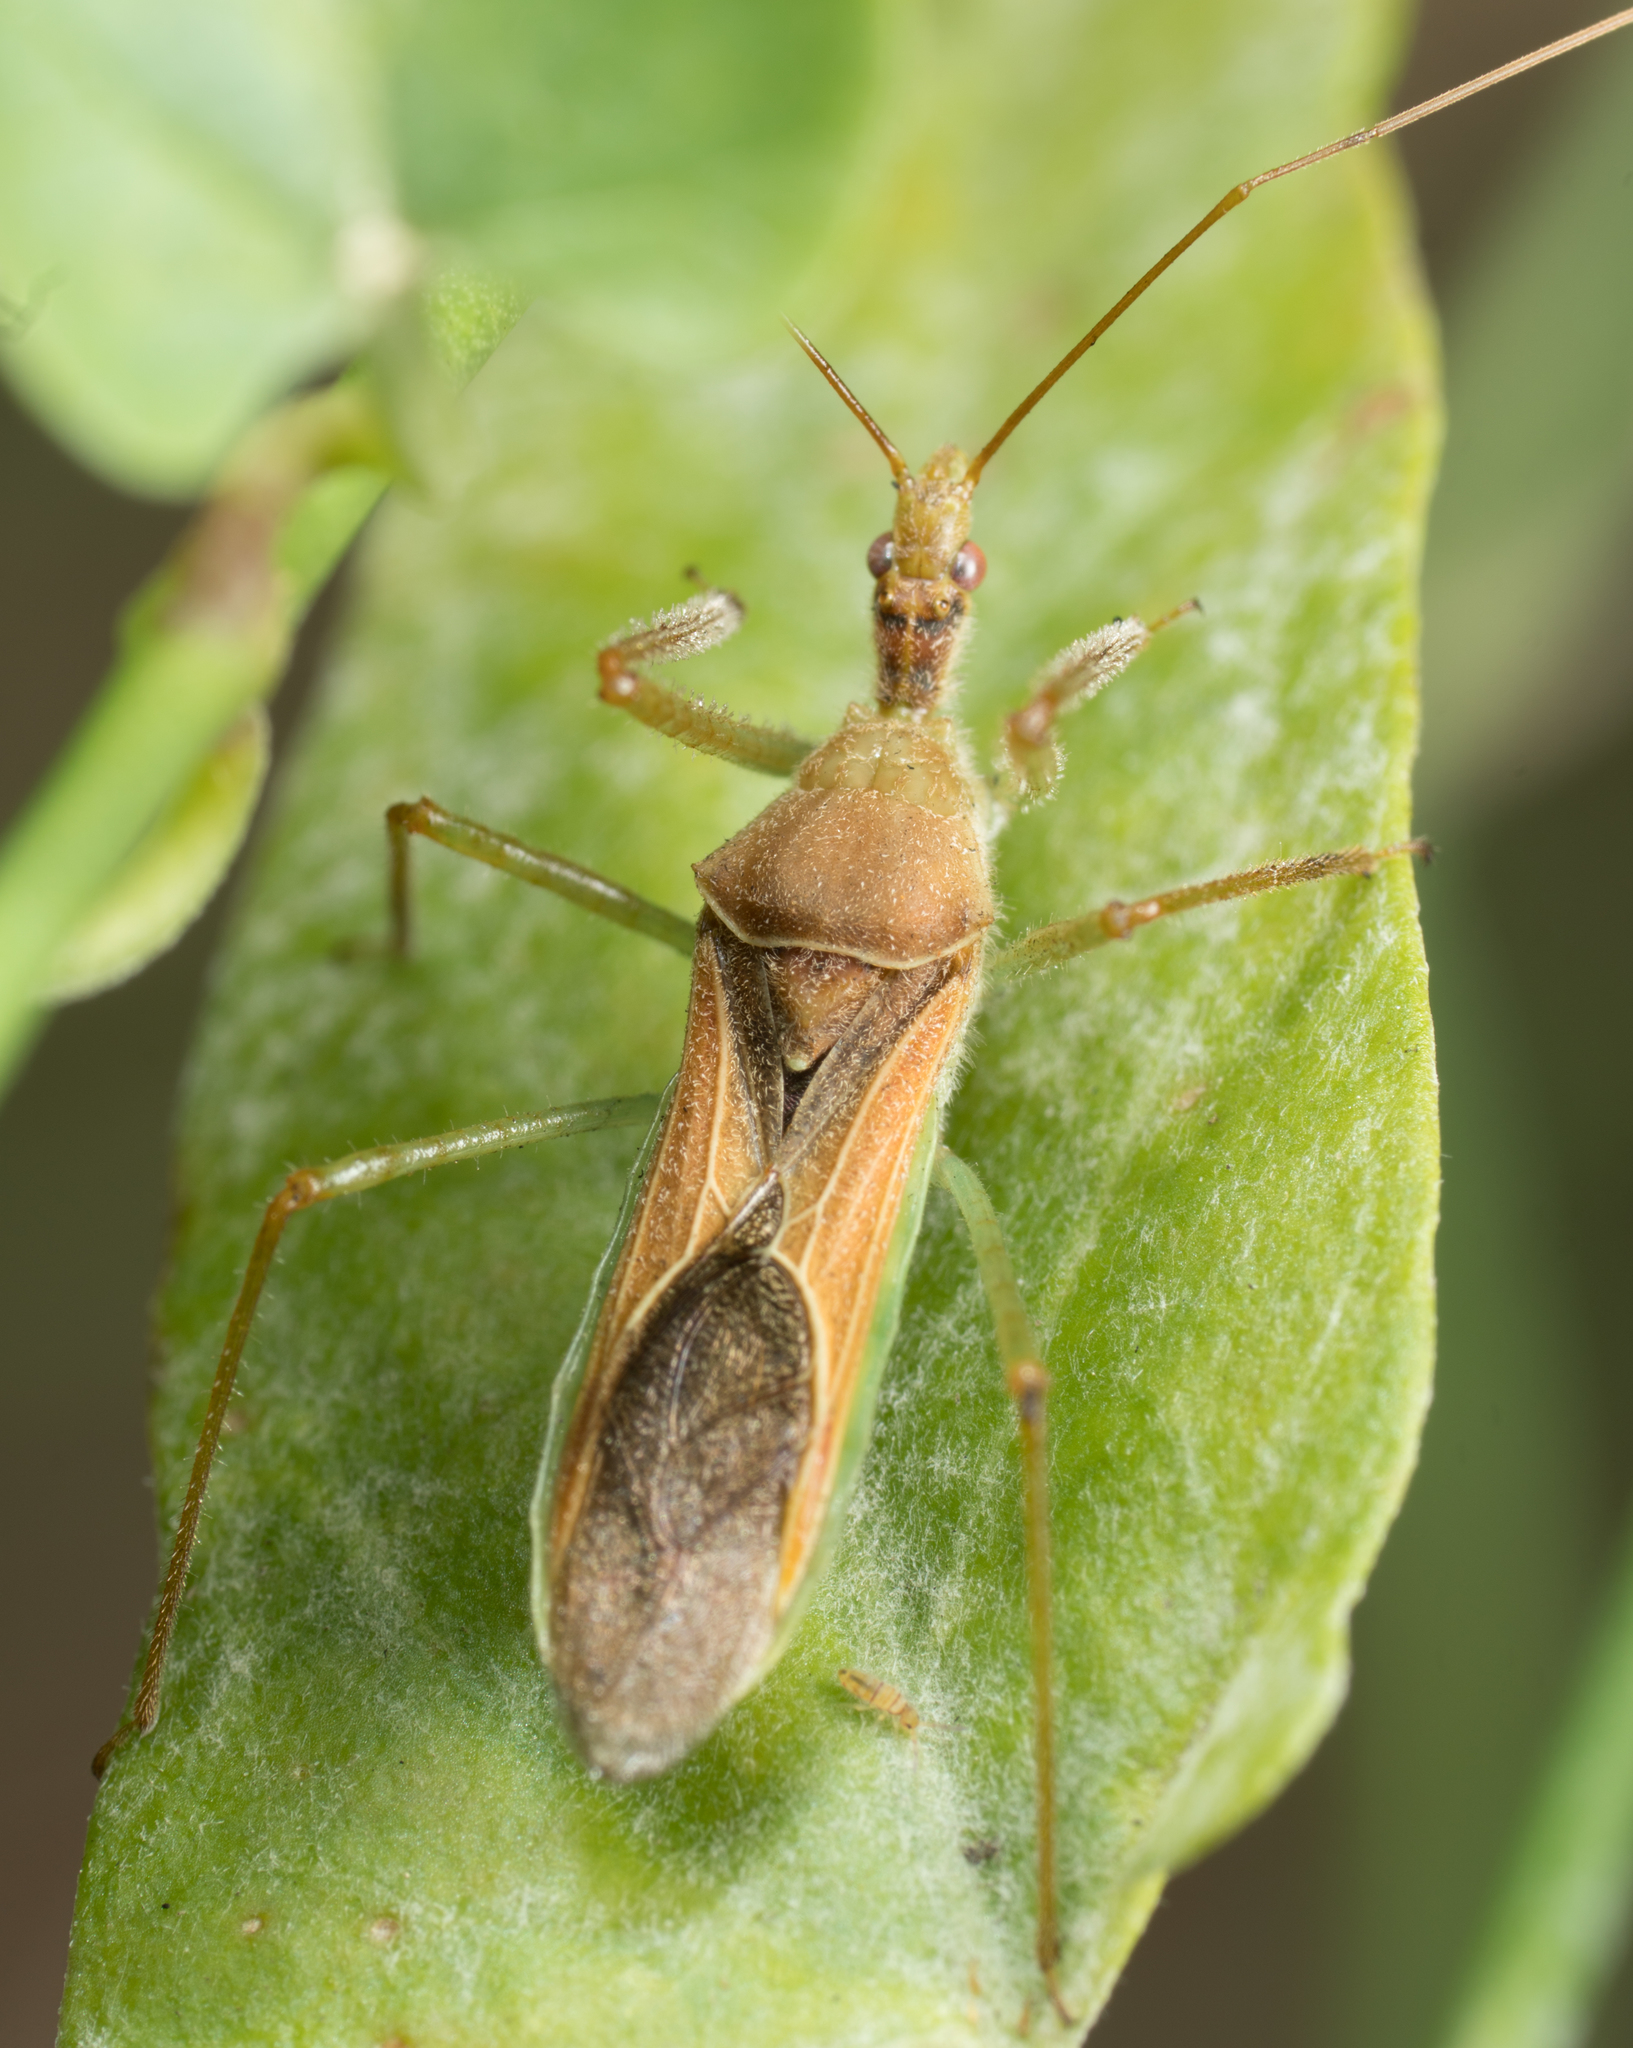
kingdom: Animalia
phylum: Arthropoda
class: Insecta
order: Hemiptera
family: Reduviidae
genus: Zelus
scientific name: Zelus renardii
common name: Assassin bug
